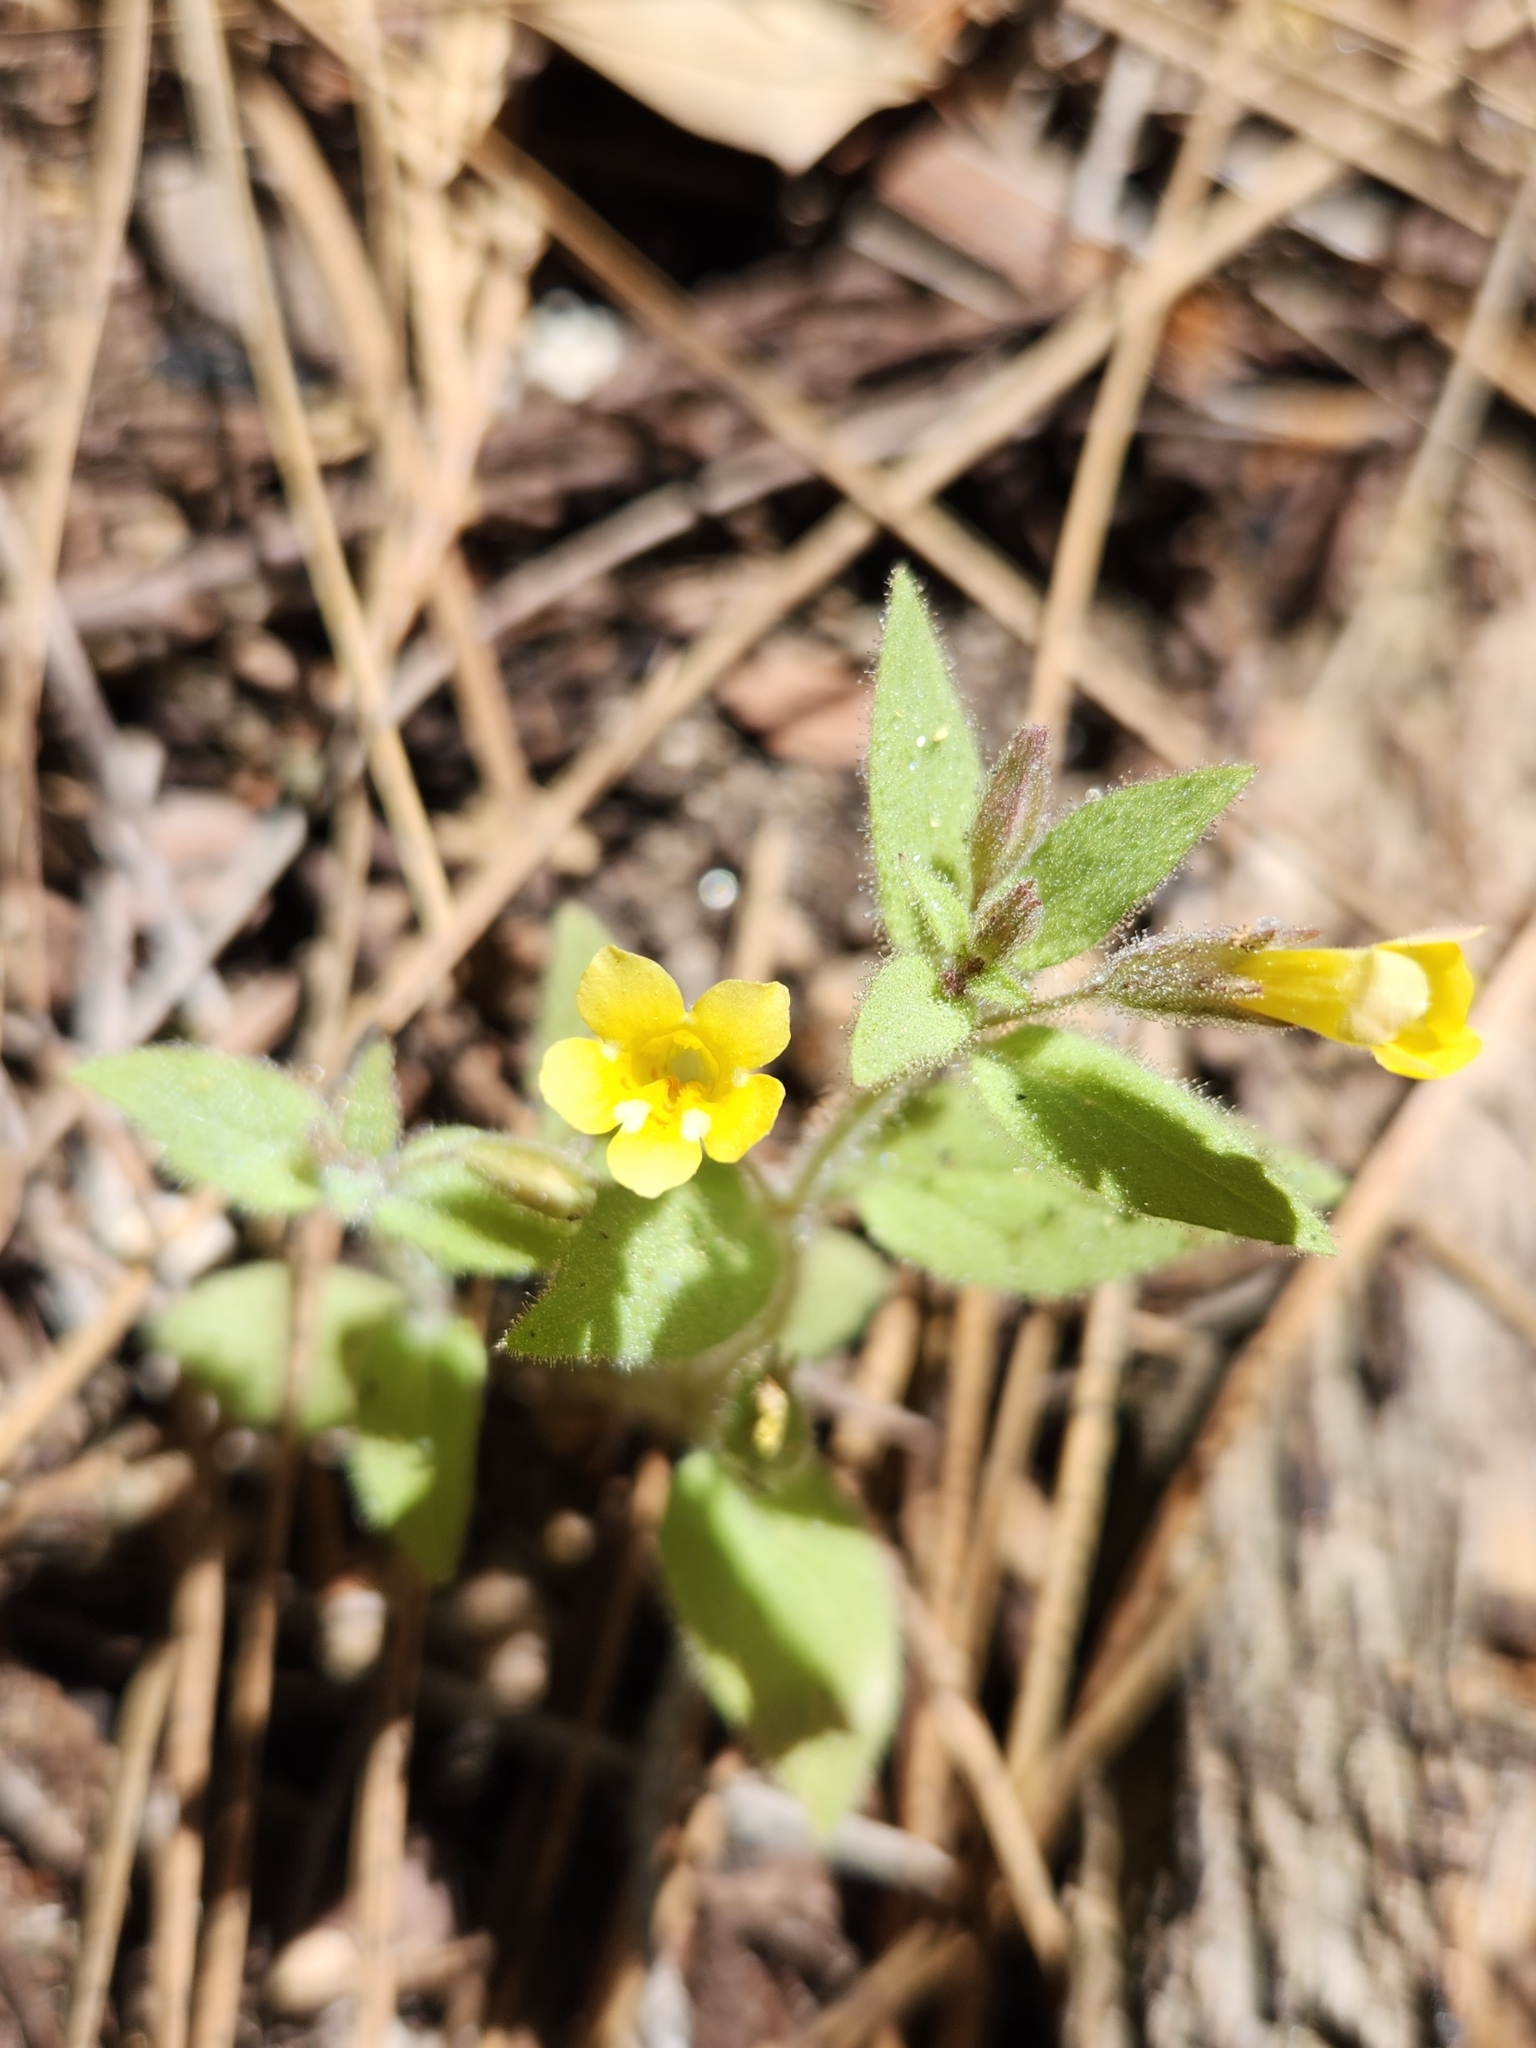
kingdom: Plantae
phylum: Tracheophyta
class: Magnoliopsida
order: Lamiales
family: Phrymaceae
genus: Erythranthe
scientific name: Erythranthe floribunda
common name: Floriferous monkeyflower
